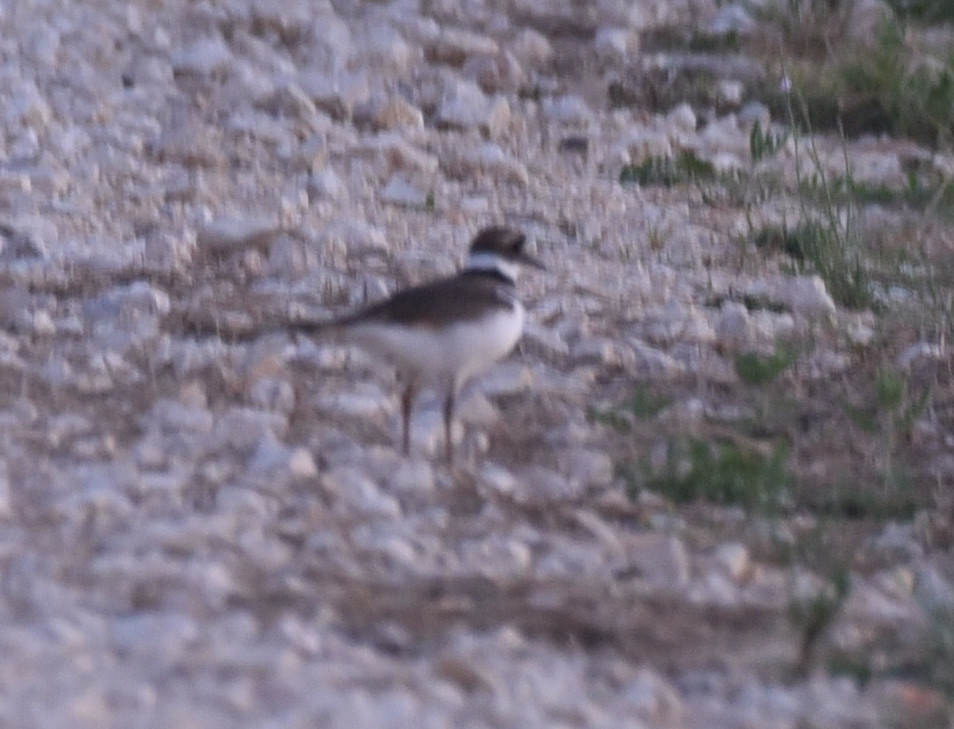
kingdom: Animalia
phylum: Chordata
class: Aves
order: Charadriiformes
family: Charadriidae
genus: Charadrius
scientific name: Charadrius vociferus
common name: Killdeer
